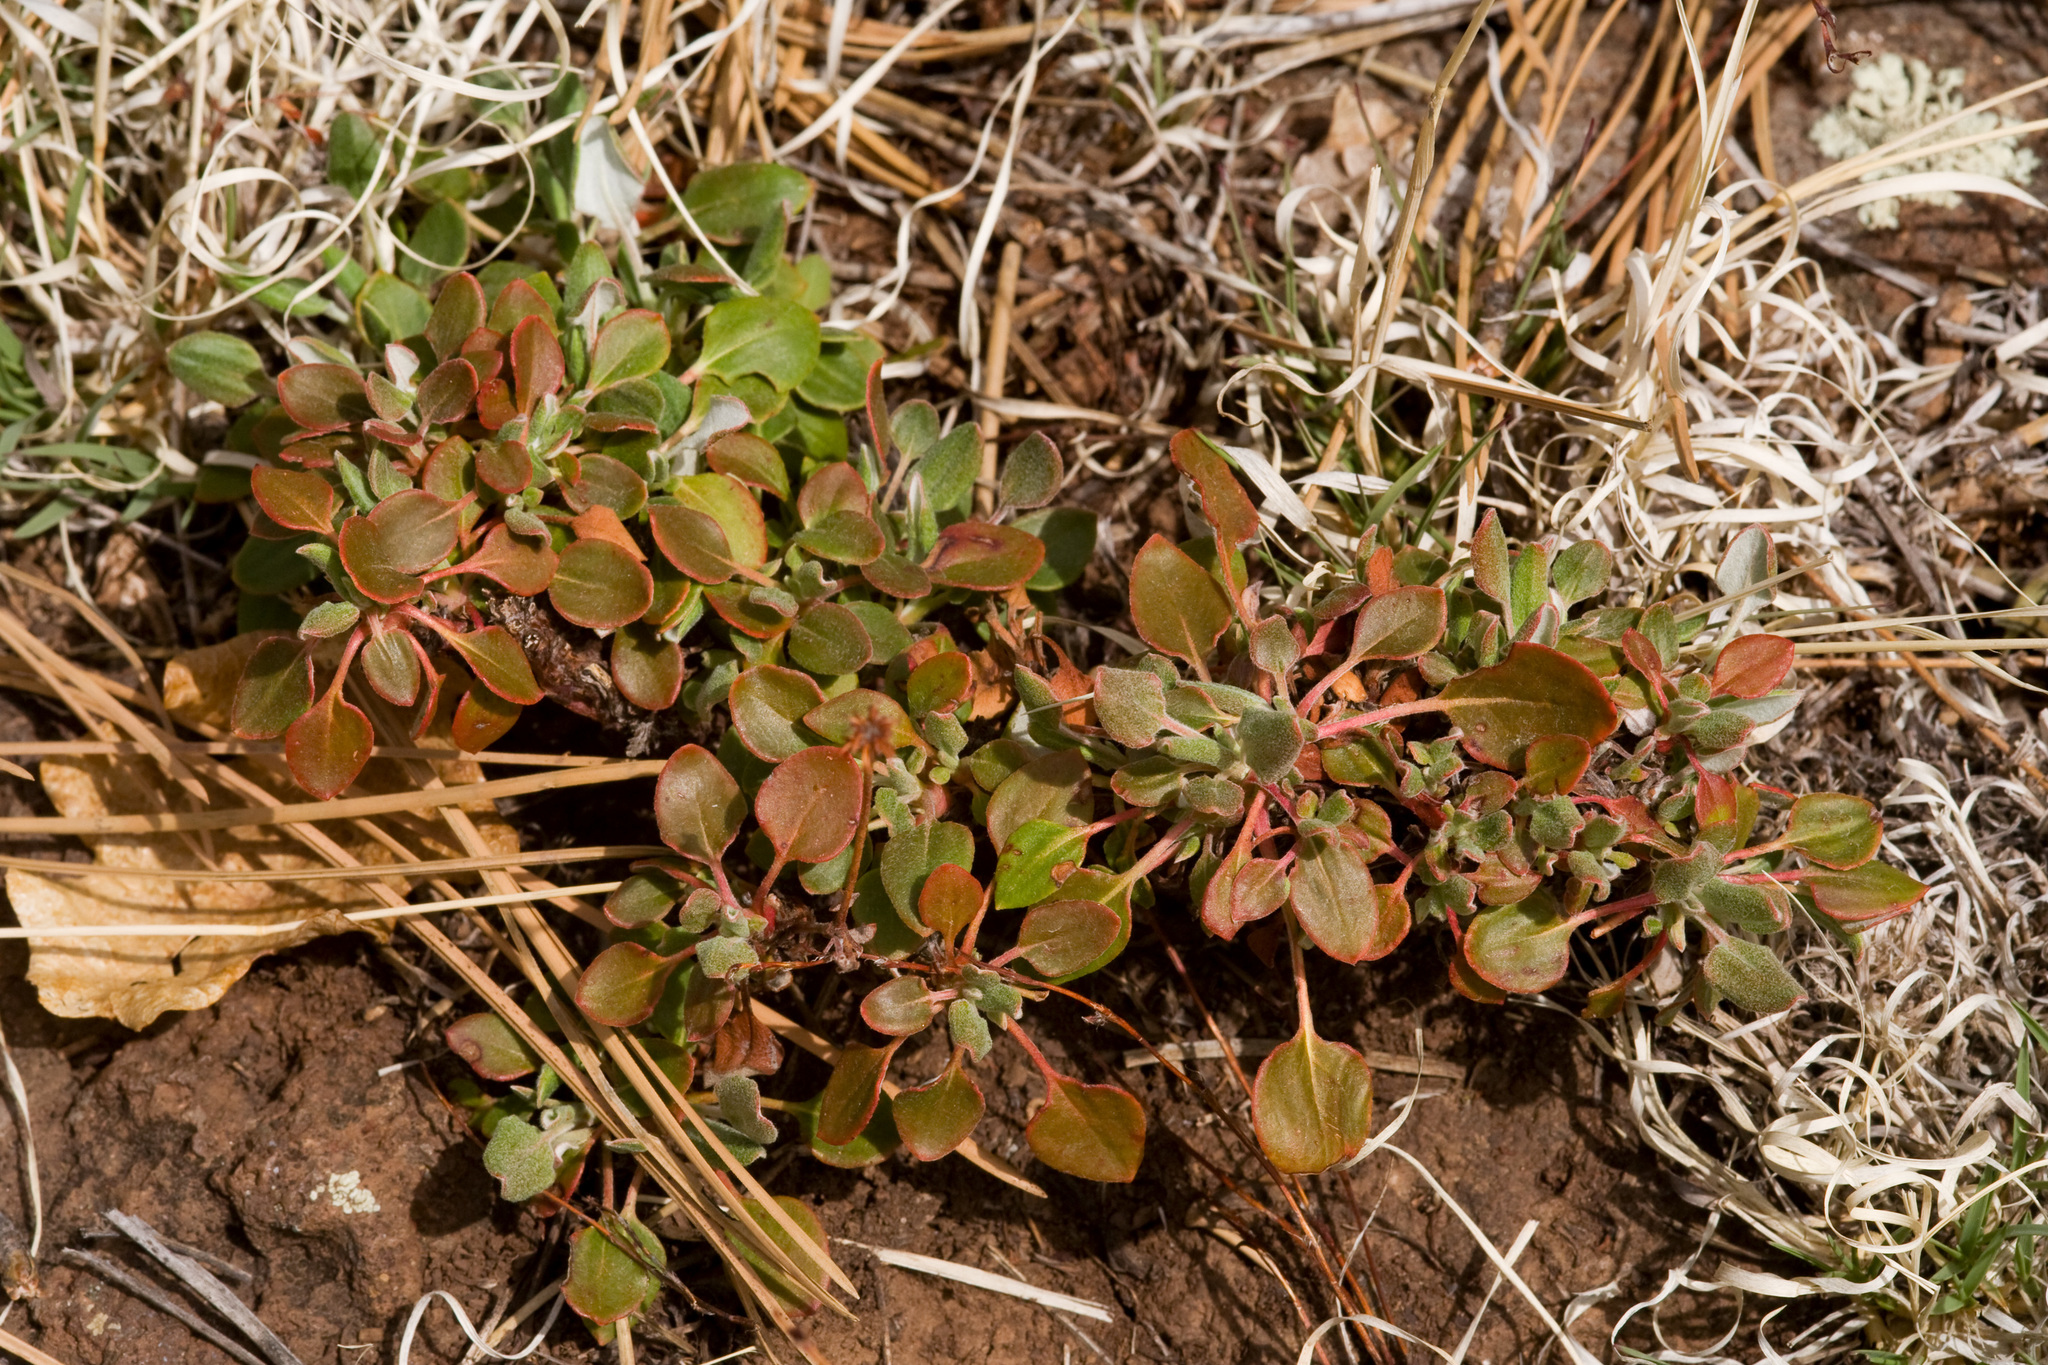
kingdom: Plantae
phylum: Tracheophyta
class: Magnoliopsida
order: Caryophyllales
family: Polygonaceae
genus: Eriogonum
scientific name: Eriogonum umbellatum
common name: Sulfur-buckwheat
